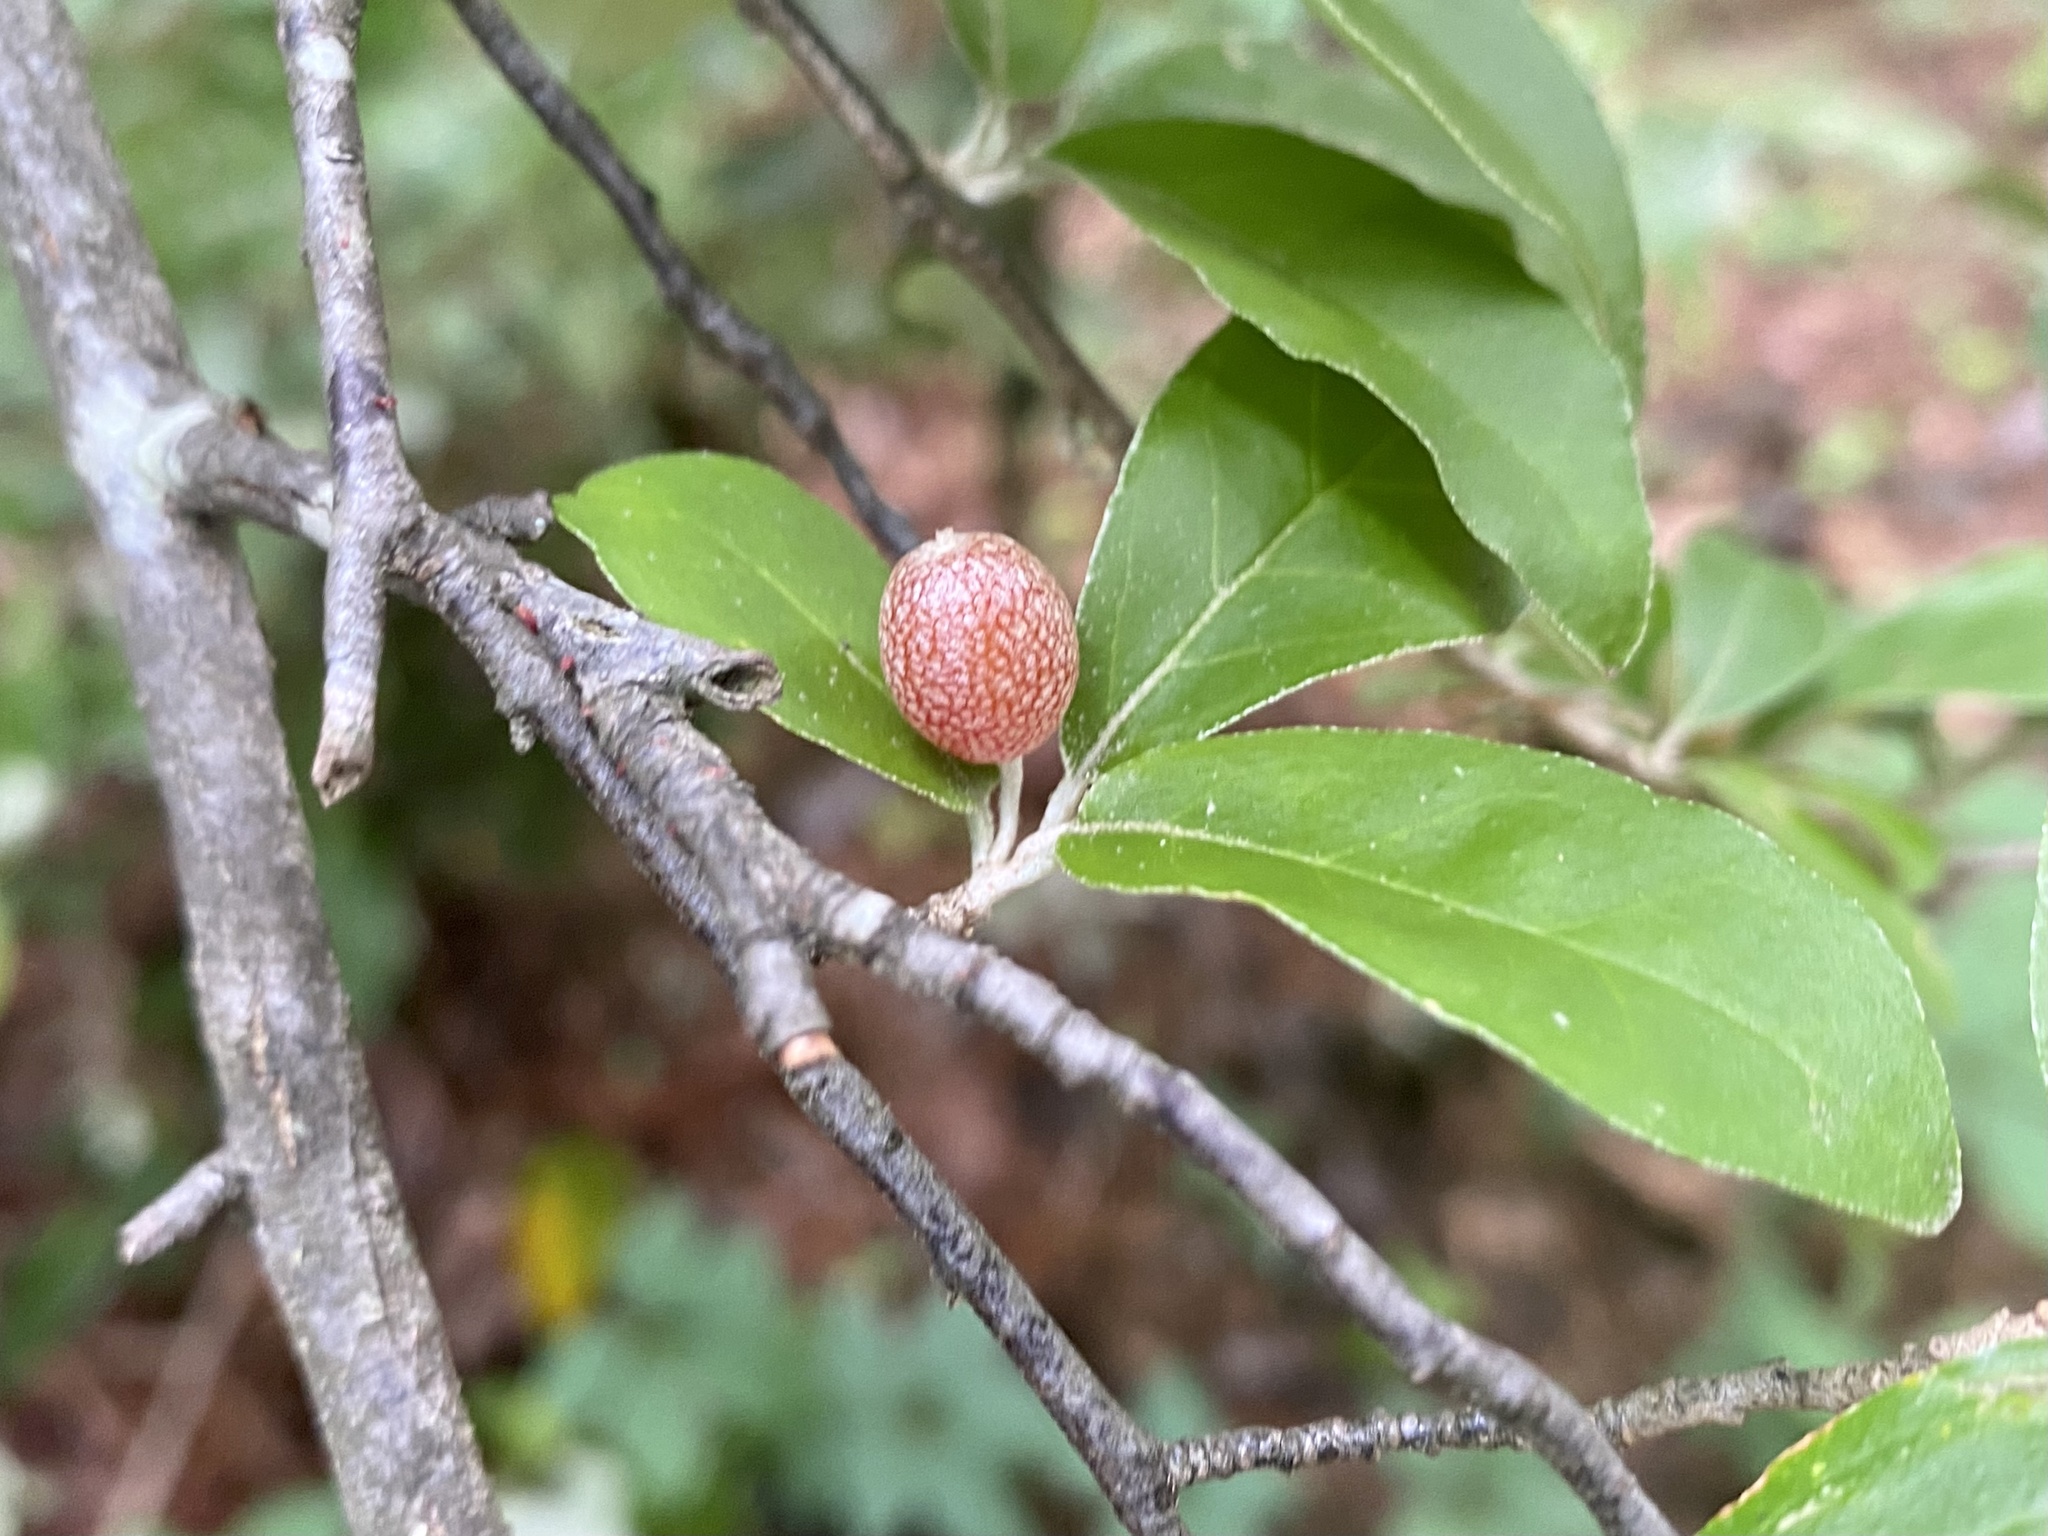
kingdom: Plantae
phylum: Tracheophyta
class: Magnoliopsida
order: Rosales
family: Elaeagnaceae
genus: Elaeagnus
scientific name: Elaeagnus umbellata
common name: Autumn olive
